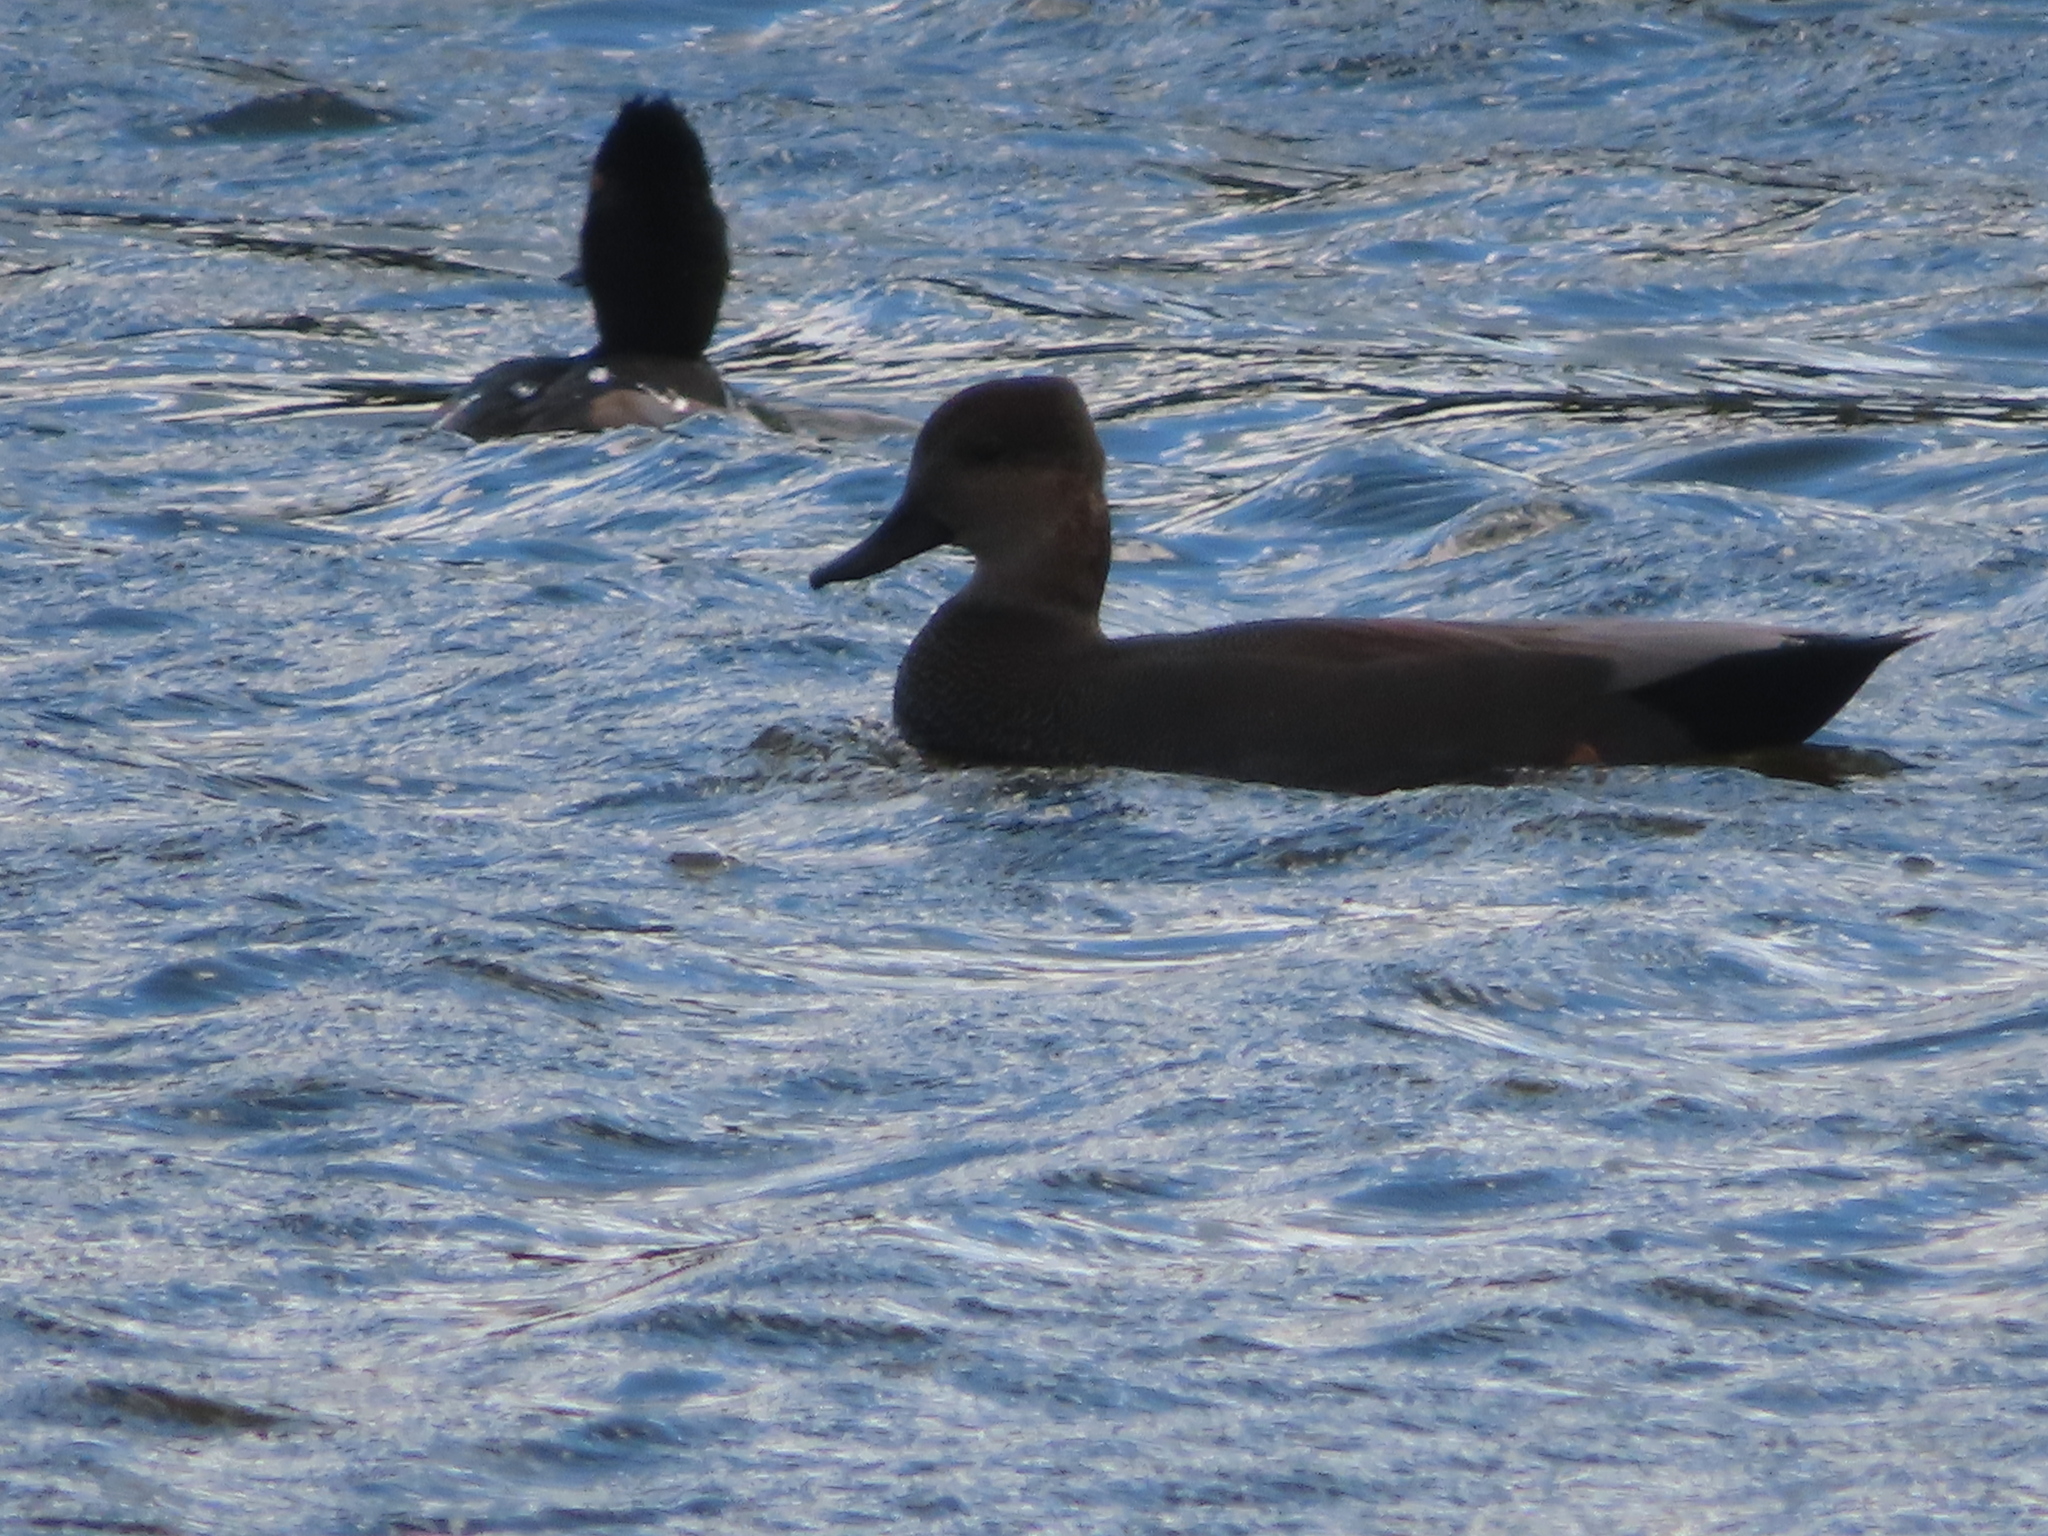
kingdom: Animalia
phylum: Chordata
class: Aves
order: Anseriformes
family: Anatidae
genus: Mareca
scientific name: Mareca strepera
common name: Gadwall
